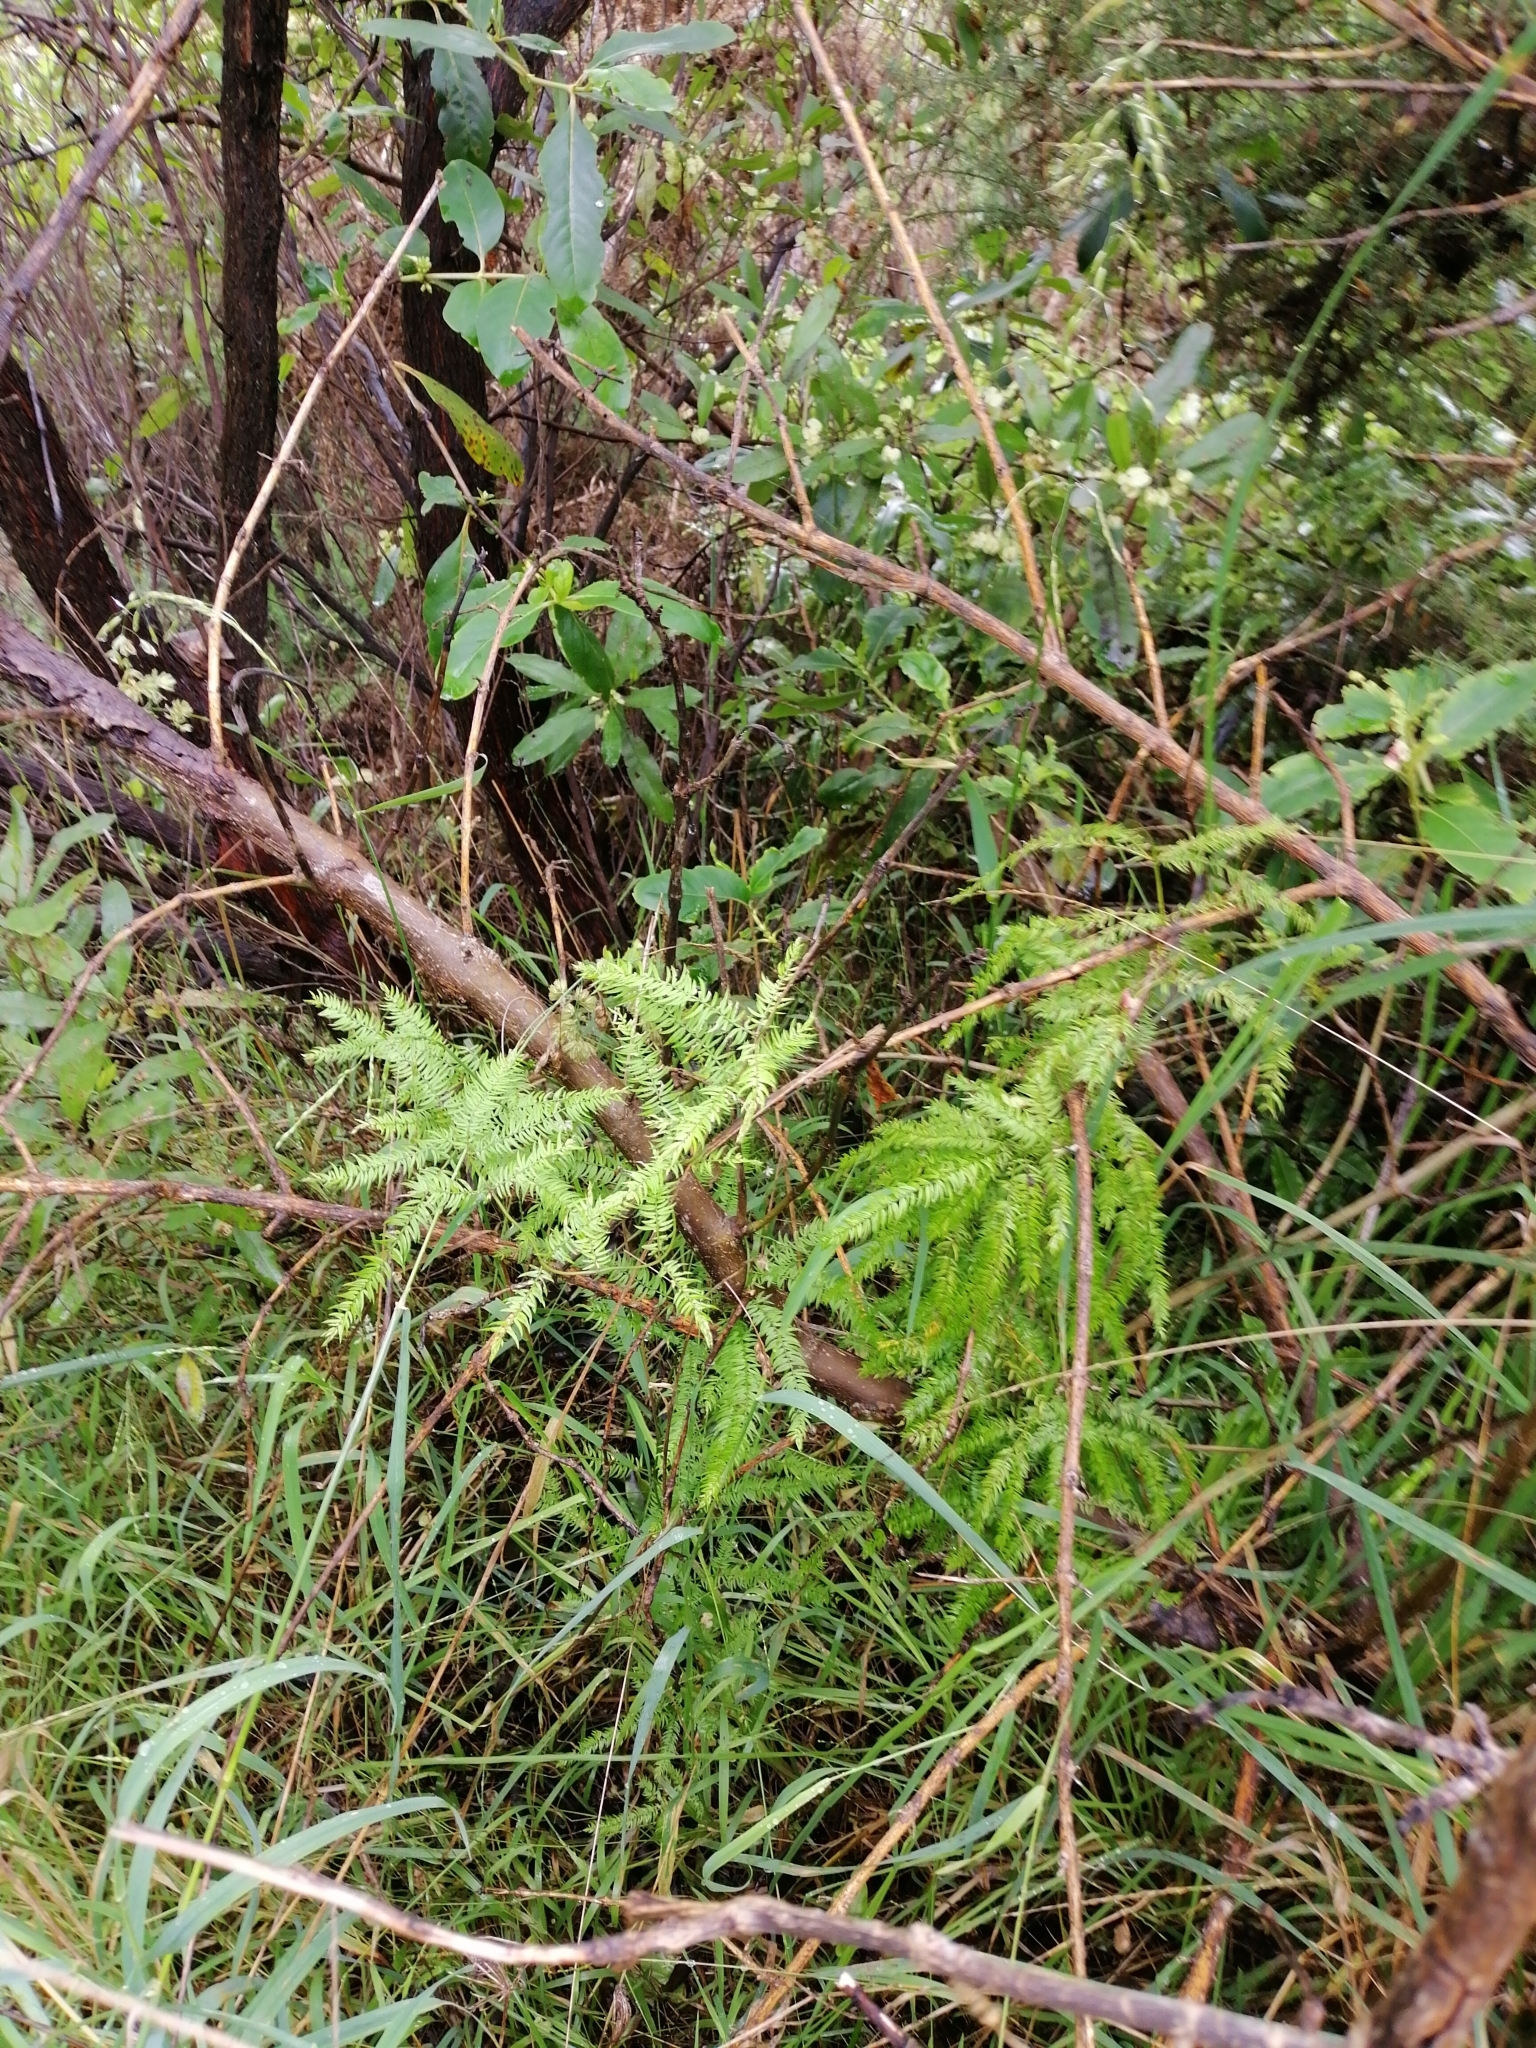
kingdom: Plantae
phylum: Tracheophyta
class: Liliopsida
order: Asparagales
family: Asparagaceae
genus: Asparagus
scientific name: Asparagus scandens
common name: Asparagus-fern
